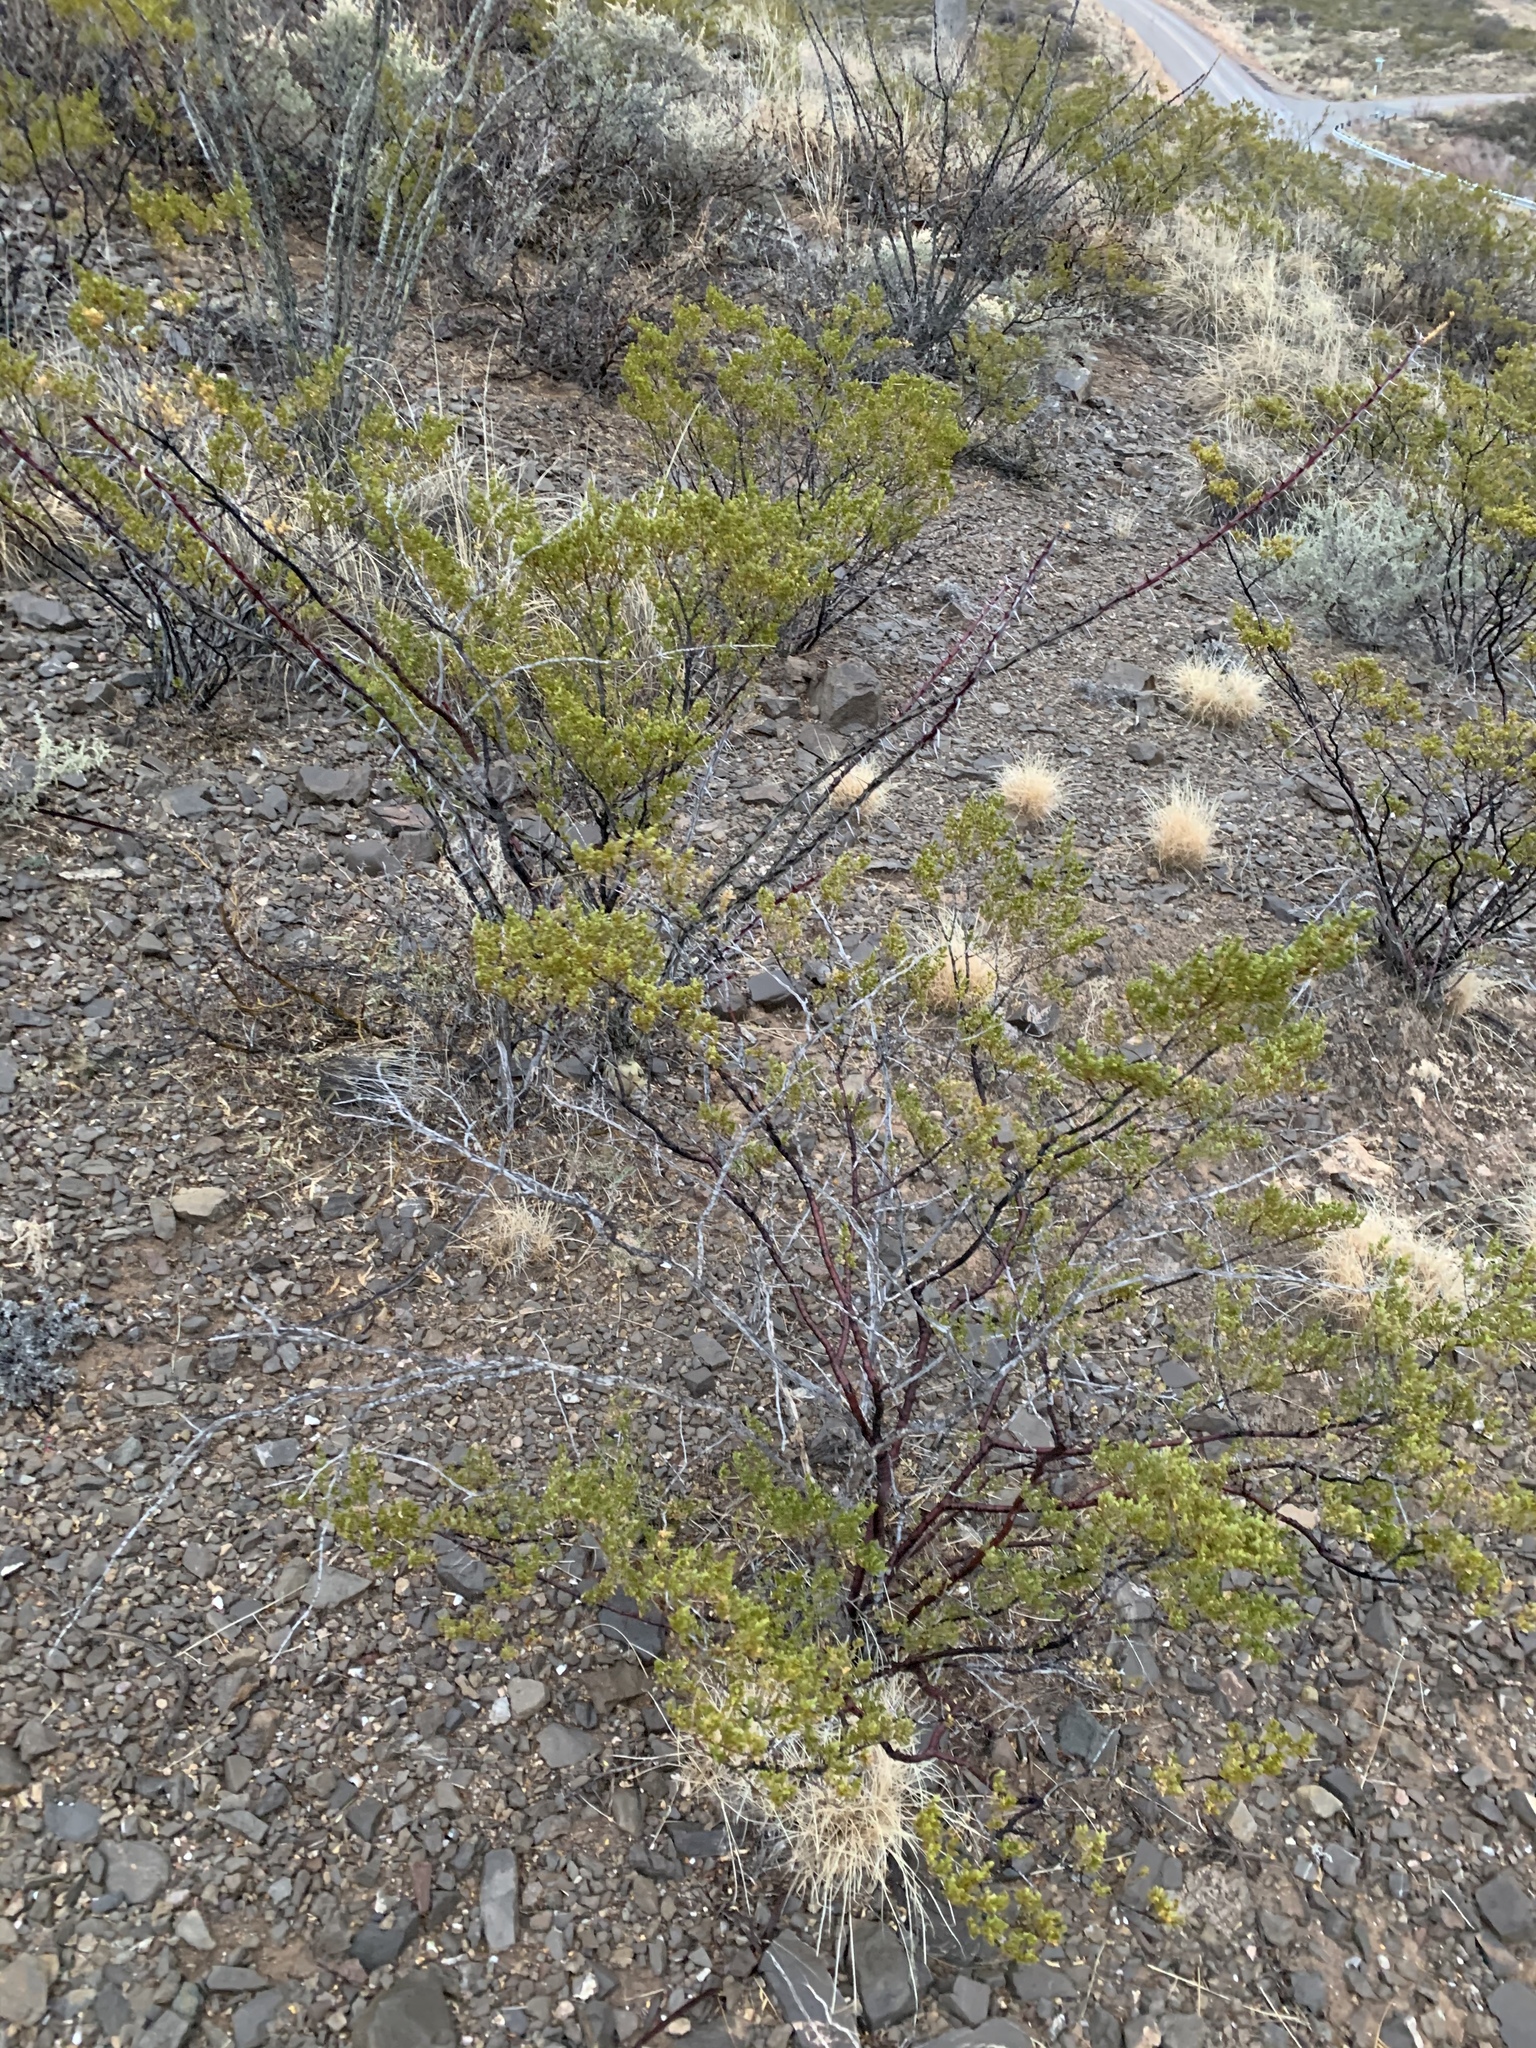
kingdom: Plantae
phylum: Tracheophyta
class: Magnoliopsida
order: Zygophyllales
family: Zygophyllaceae
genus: Larrea
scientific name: Larrea tridentata
